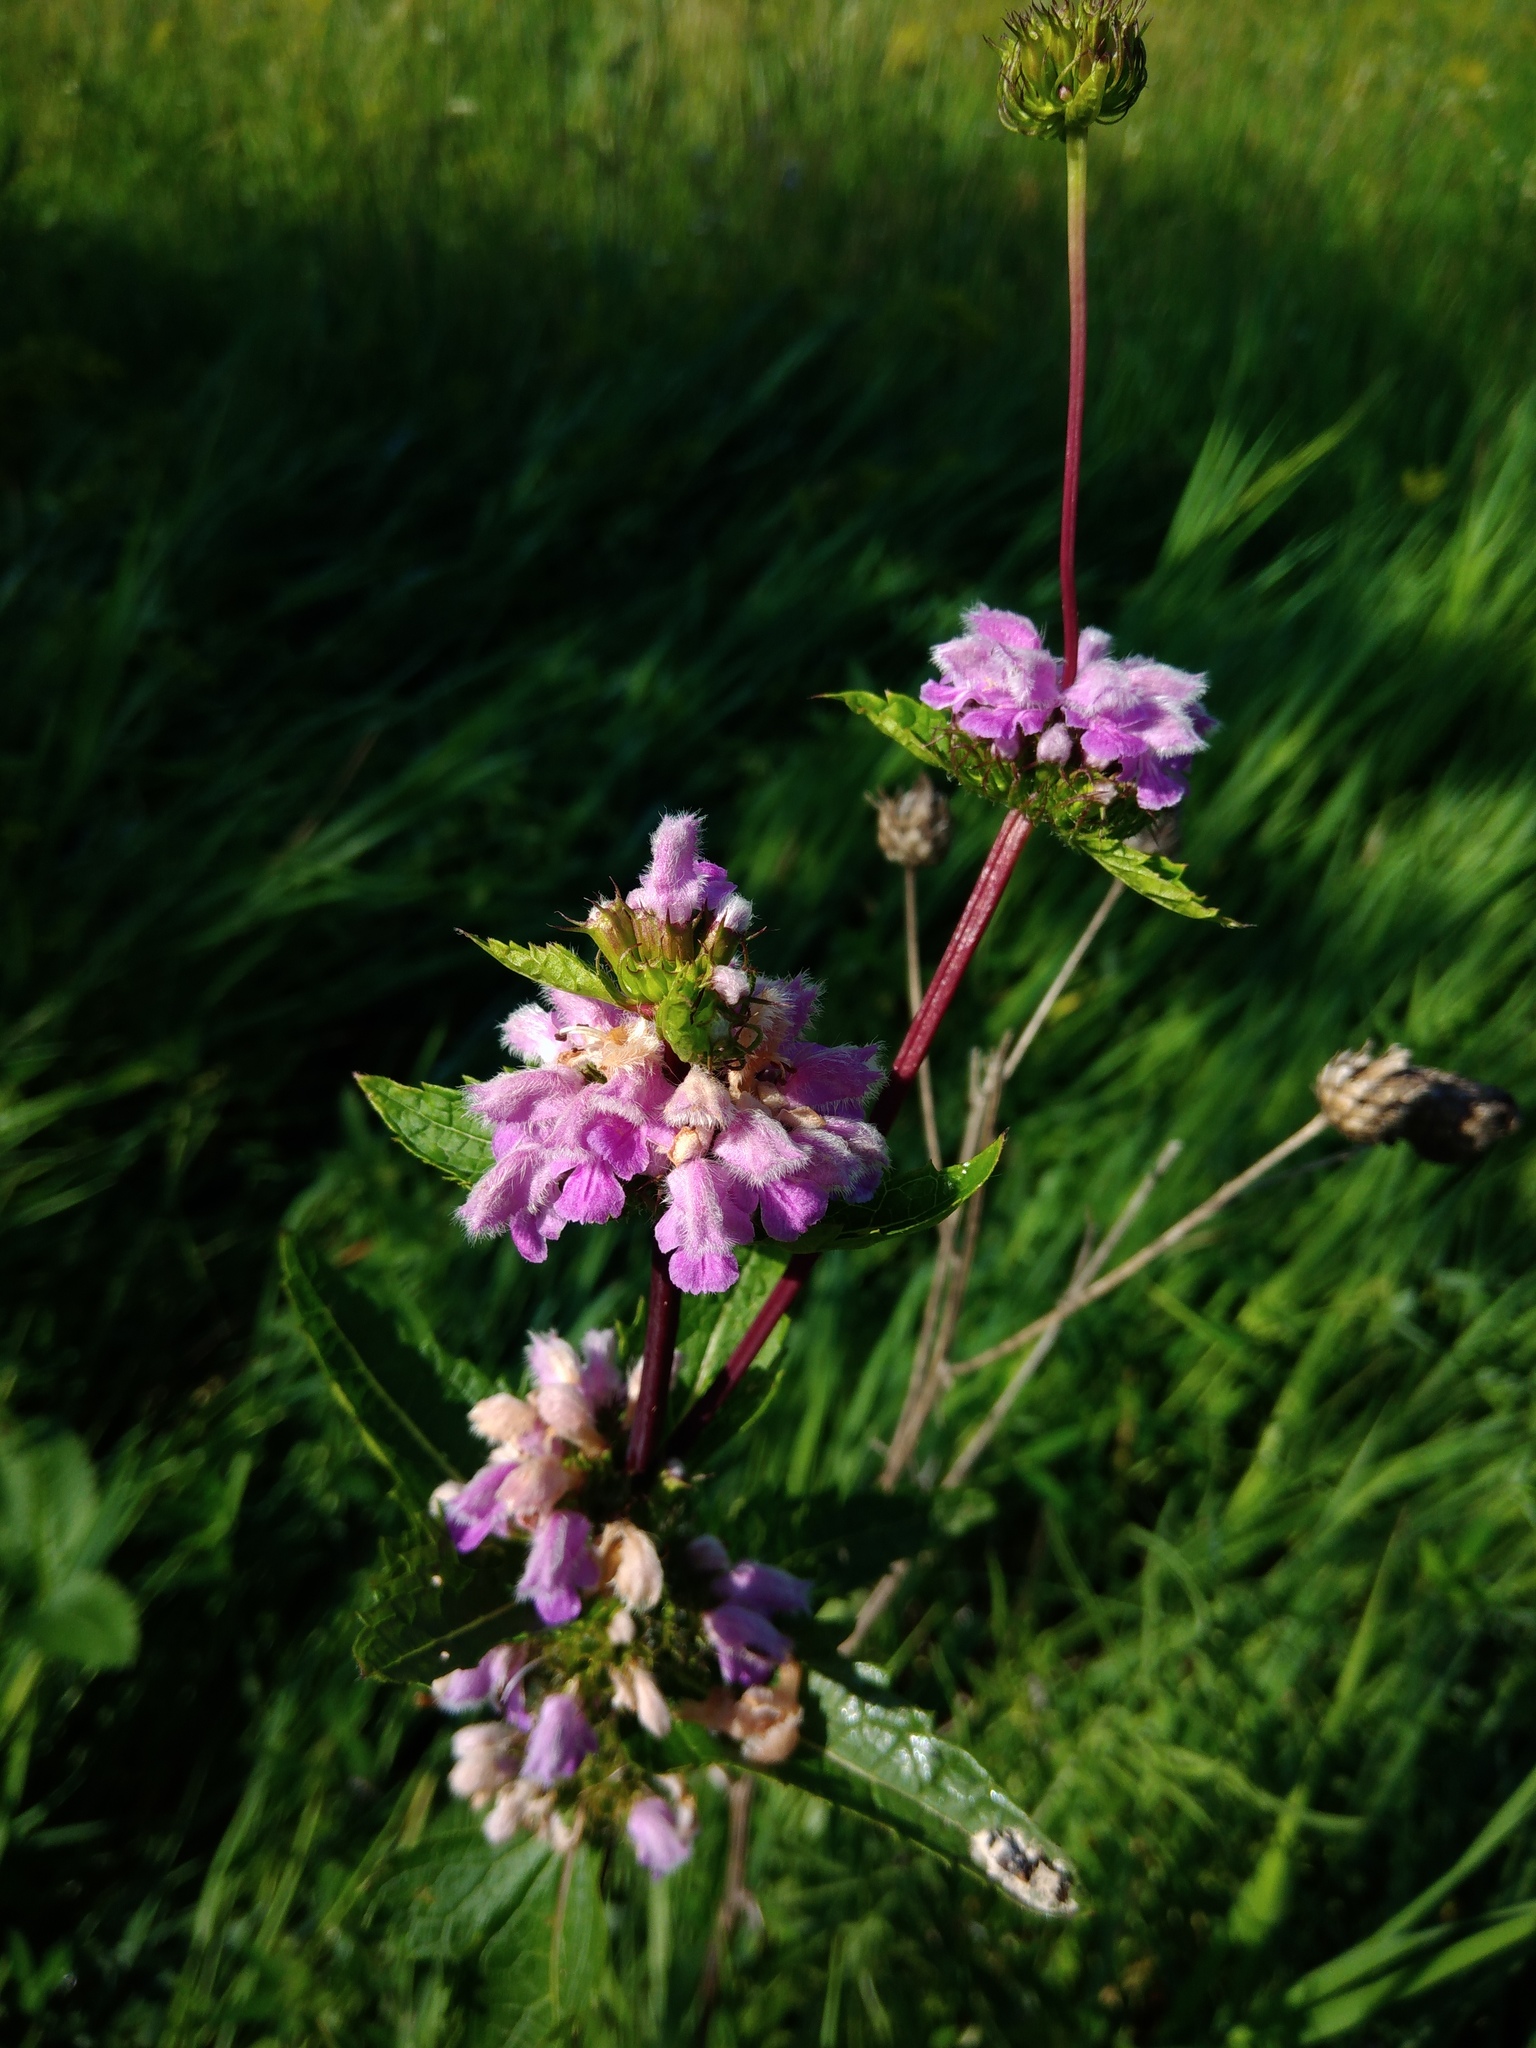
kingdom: Plantae
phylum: Tracheophyta
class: Magnoliopsida
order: Lamiales
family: Lamiaceae
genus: Phlomoides
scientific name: Phlomoides tuberosa
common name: Tuberous jerusalem sage
